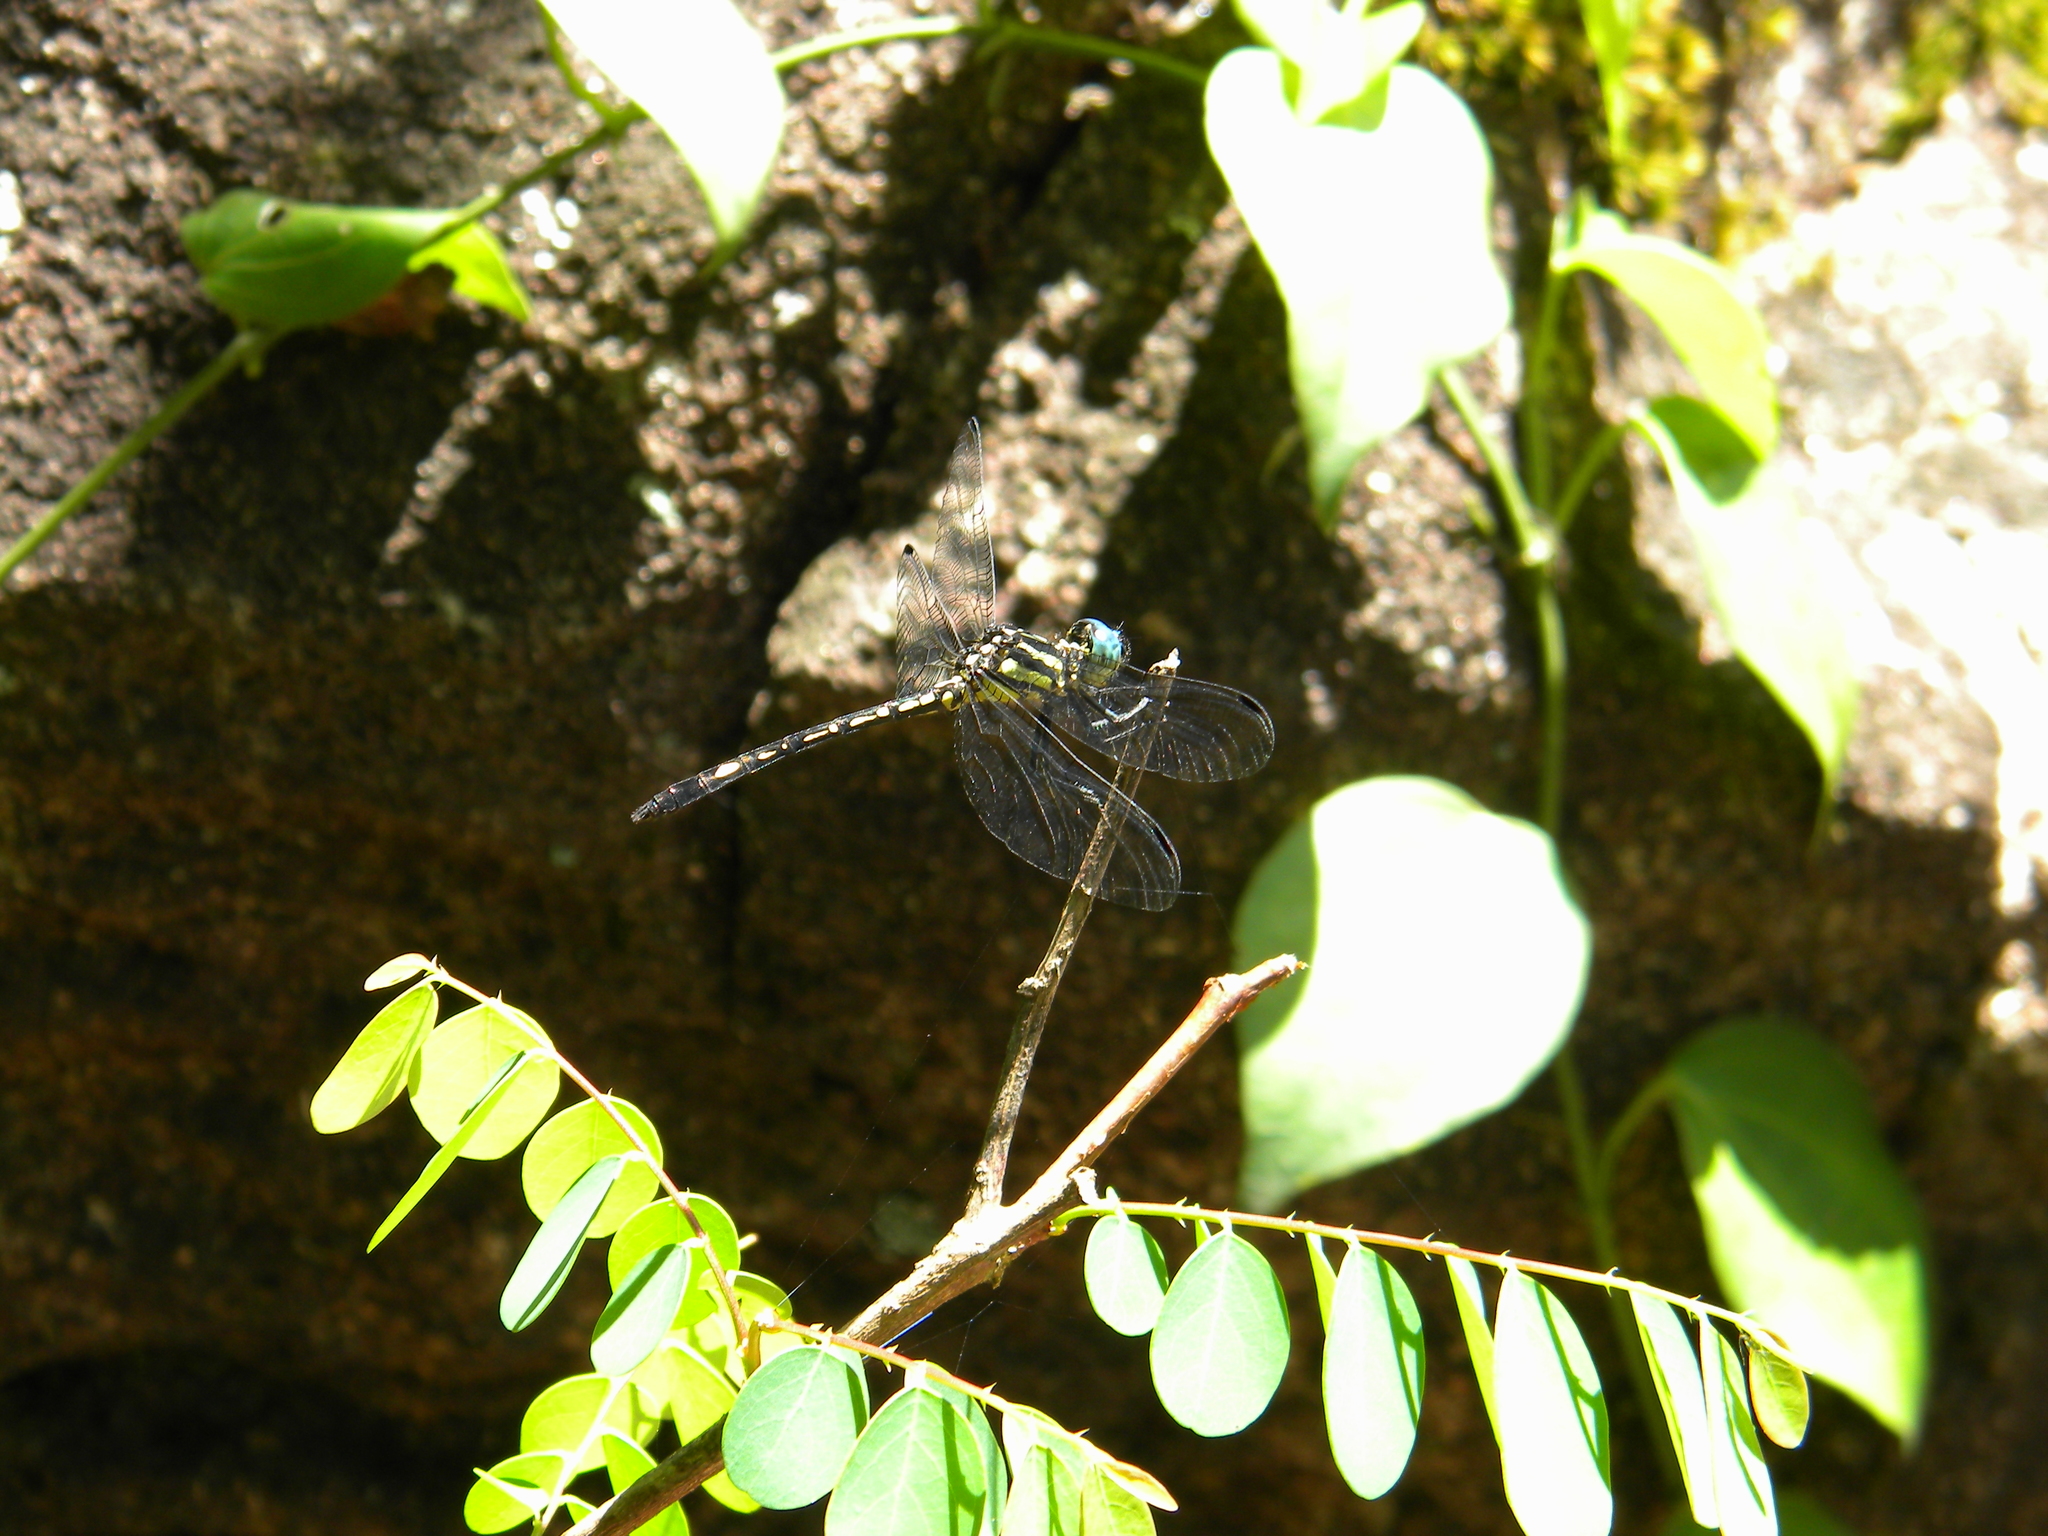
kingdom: Animalia
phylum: Arthropoda
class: Insecta
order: Odonata
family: Libellulidae
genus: Hylaeothemis
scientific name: Hylaeothemis apicalis
